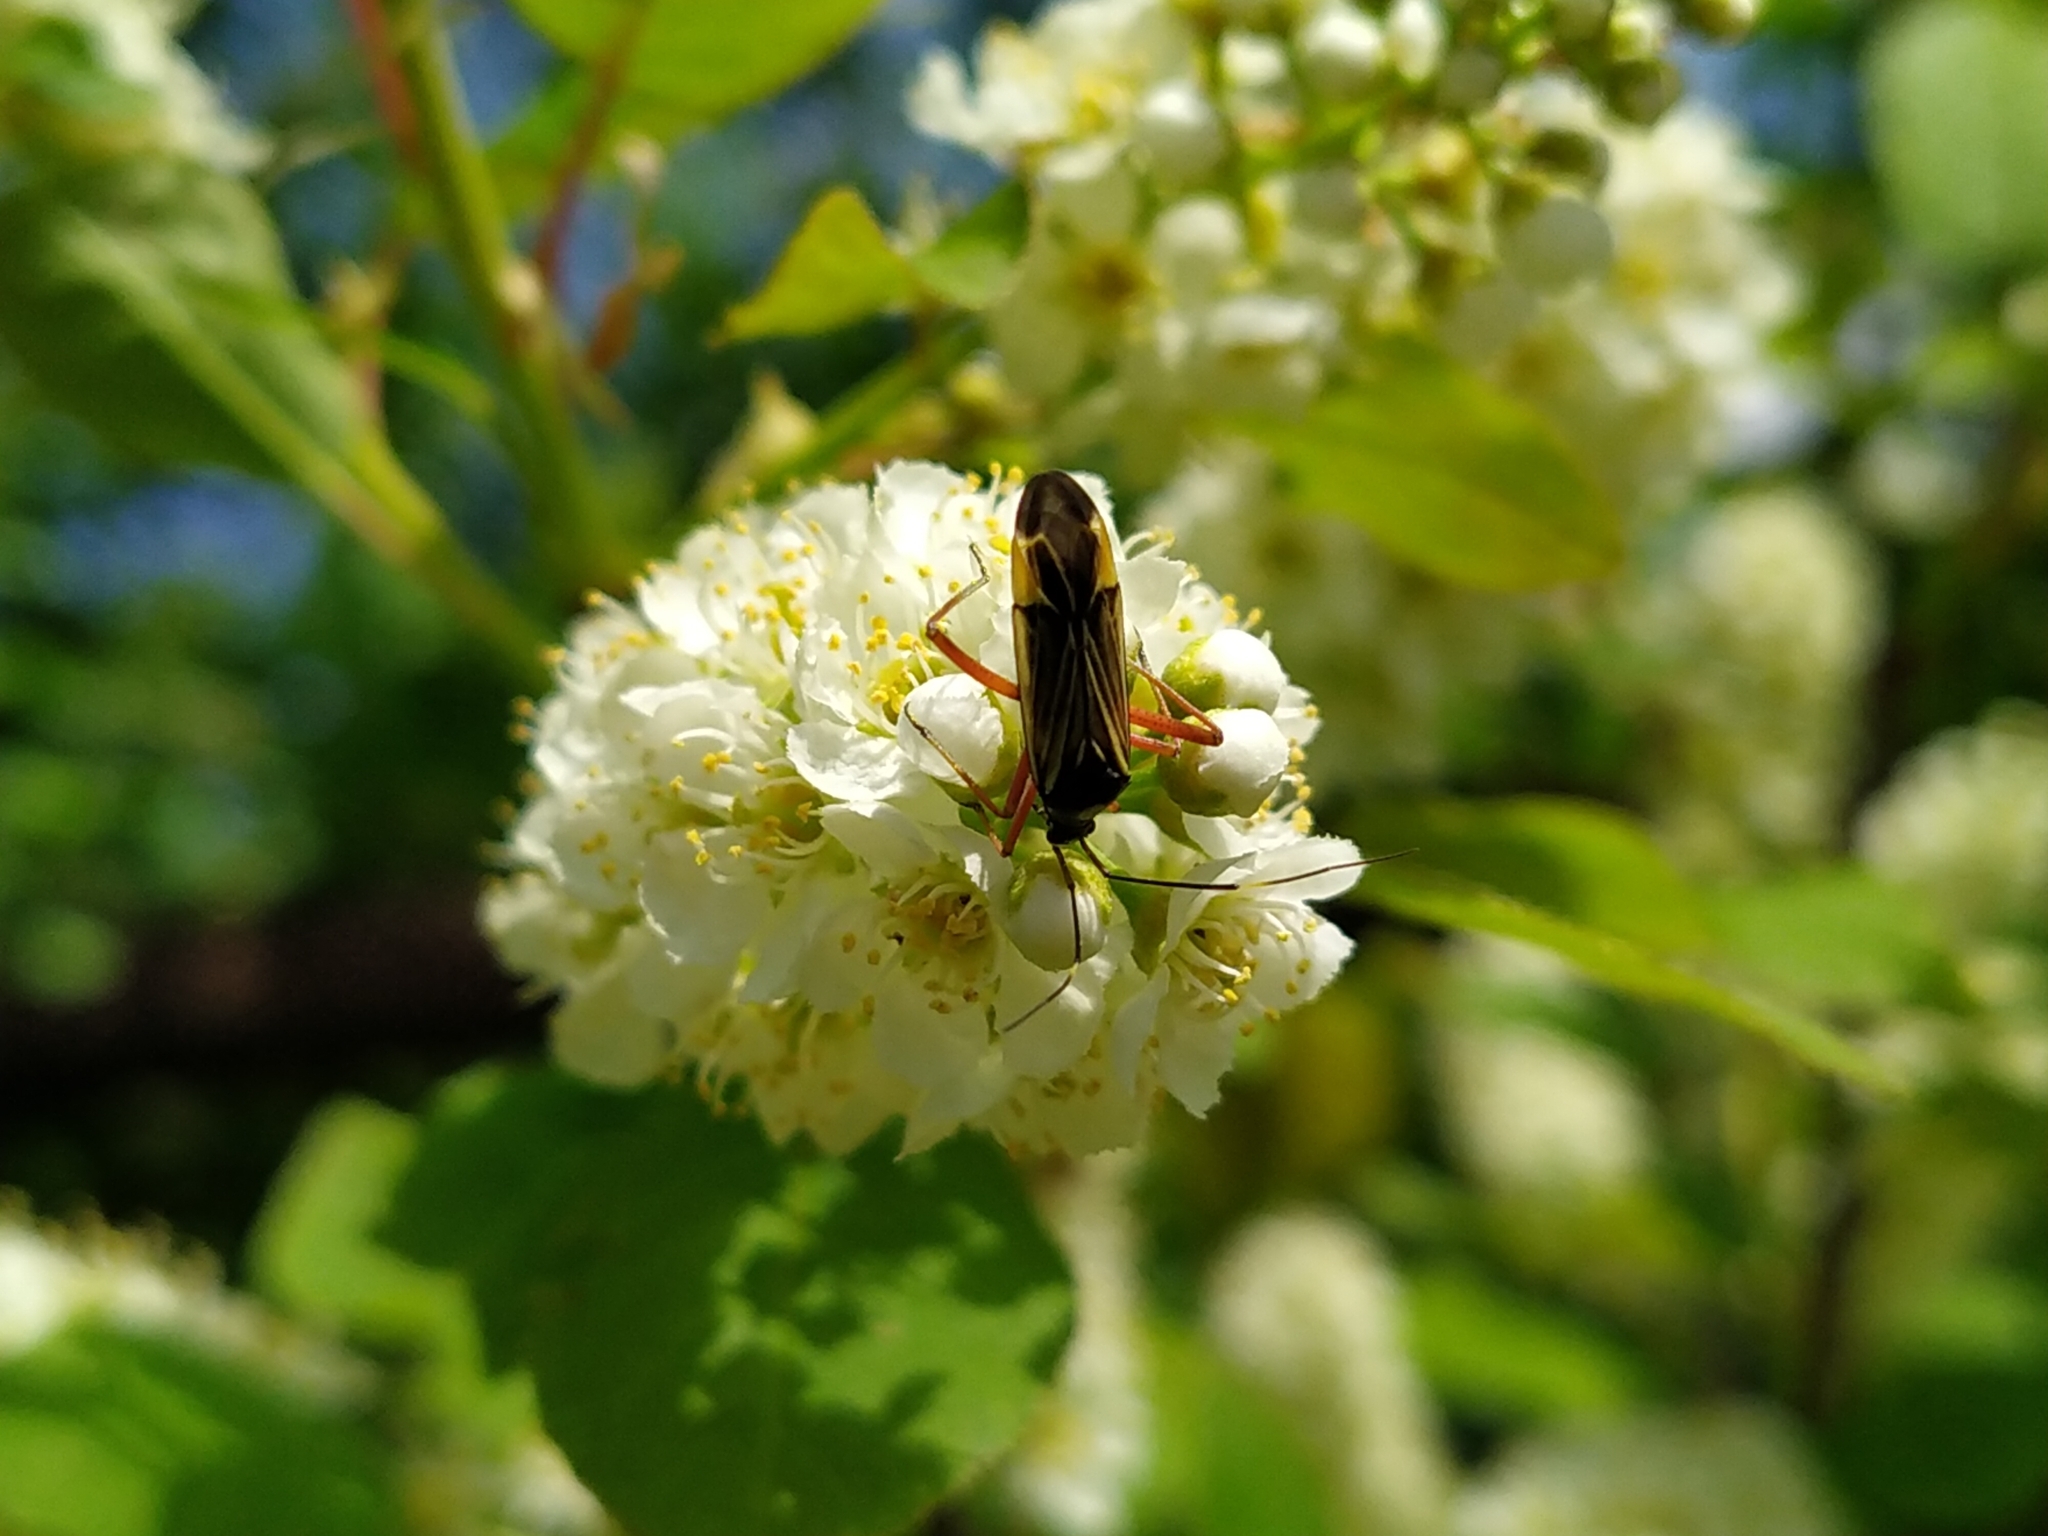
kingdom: Animalia
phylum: Arthropoda
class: Insecta
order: Hemiptera
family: Miridae
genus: Miris
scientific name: Miris striatus
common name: Fine streaked bugkin
